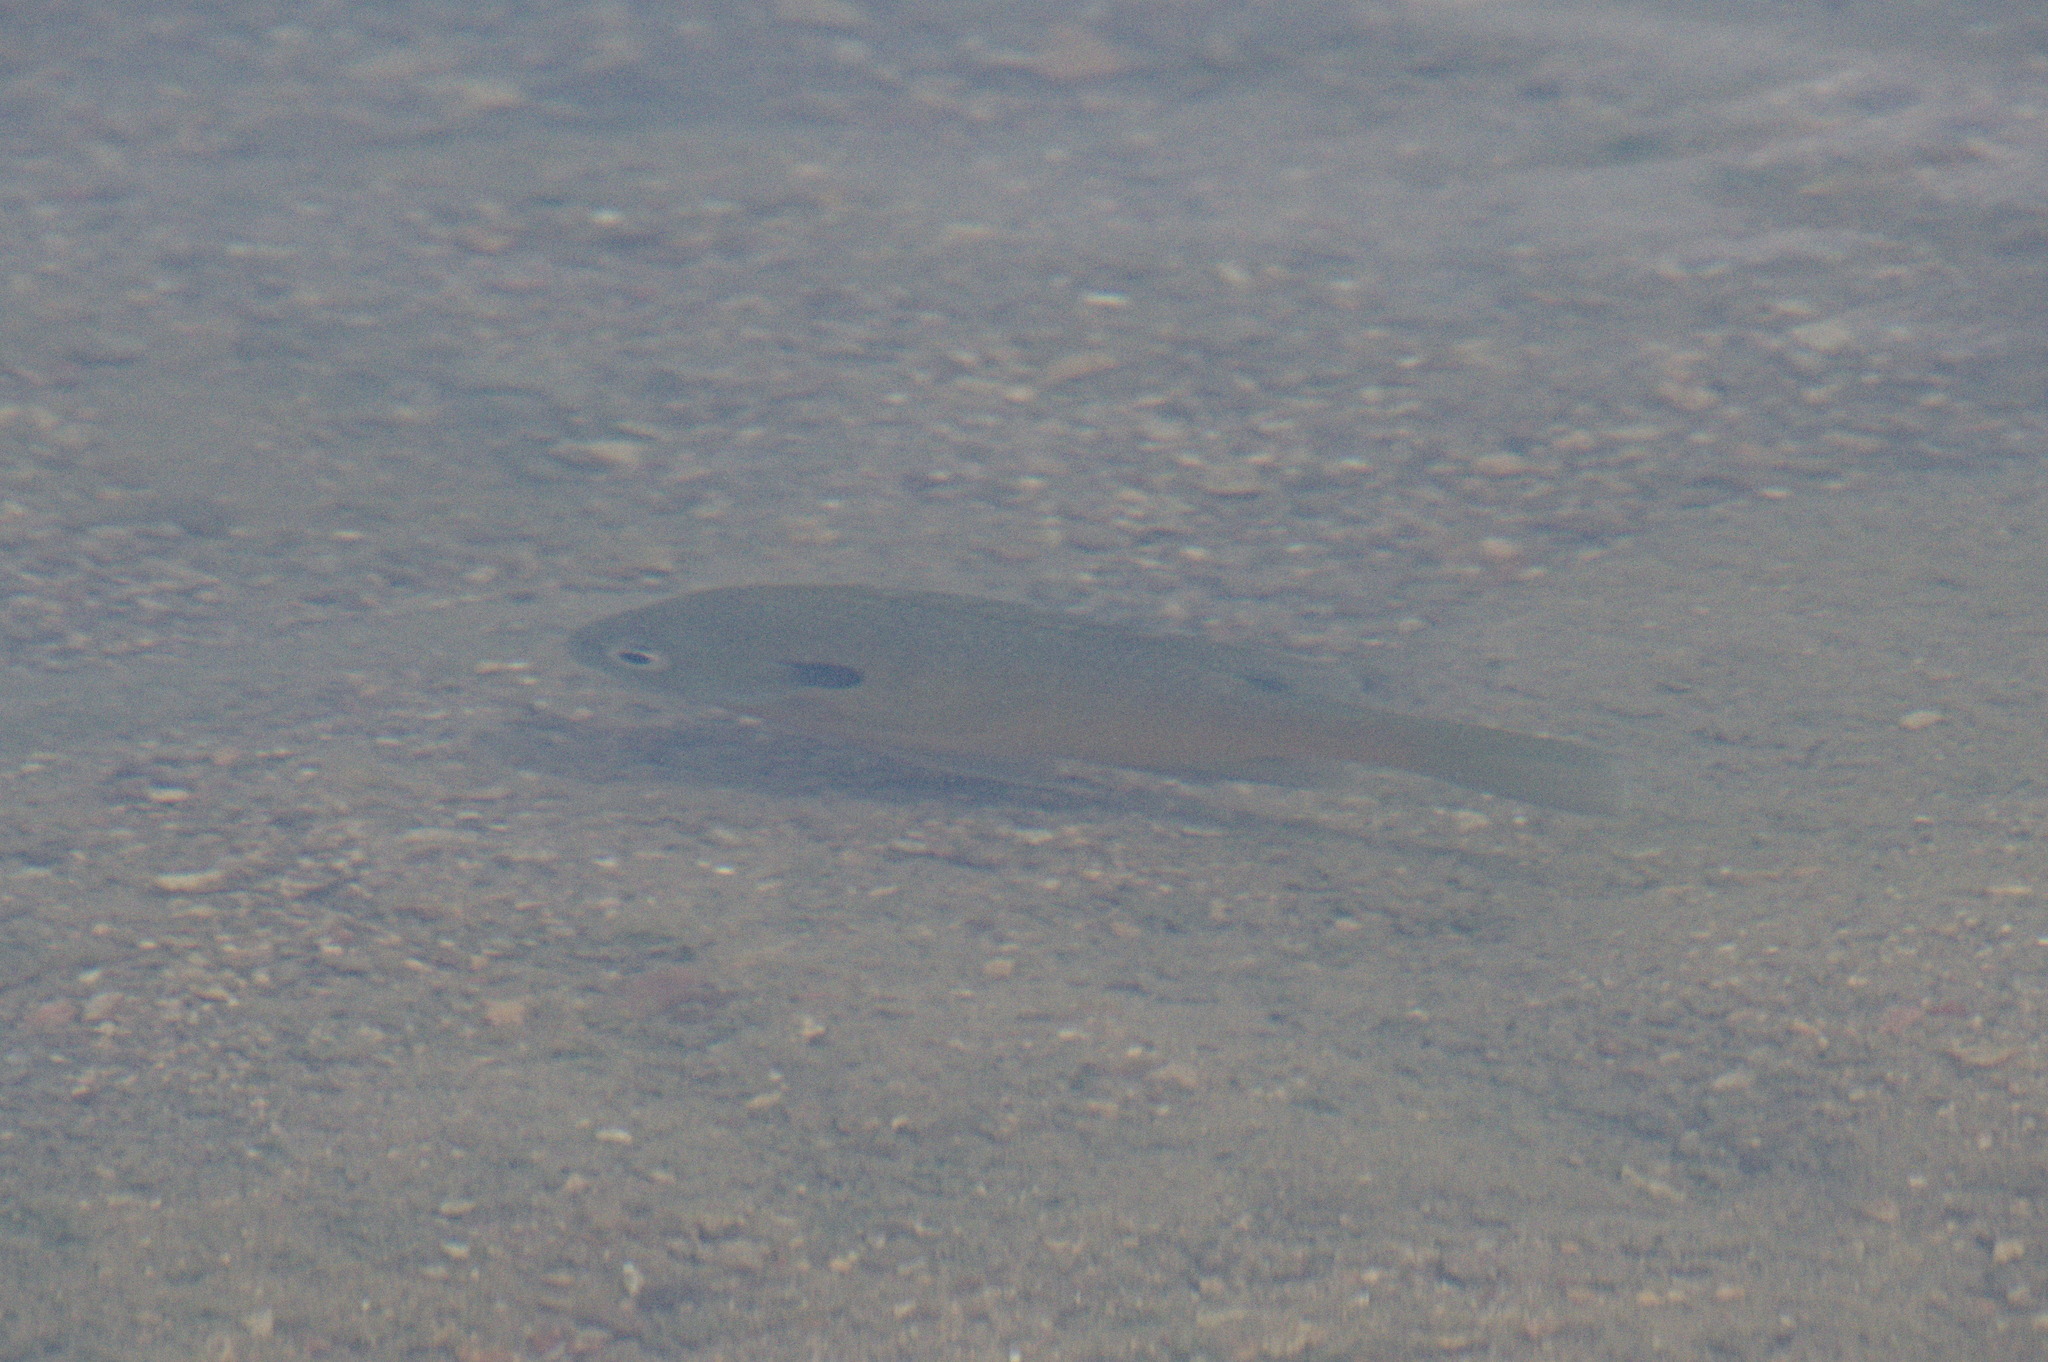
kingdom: Animalia
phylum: Chordata
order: Perciformes
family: Centrarchidae
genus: Lepomis
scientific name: Lepomis macrochirus
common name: Bluegill
